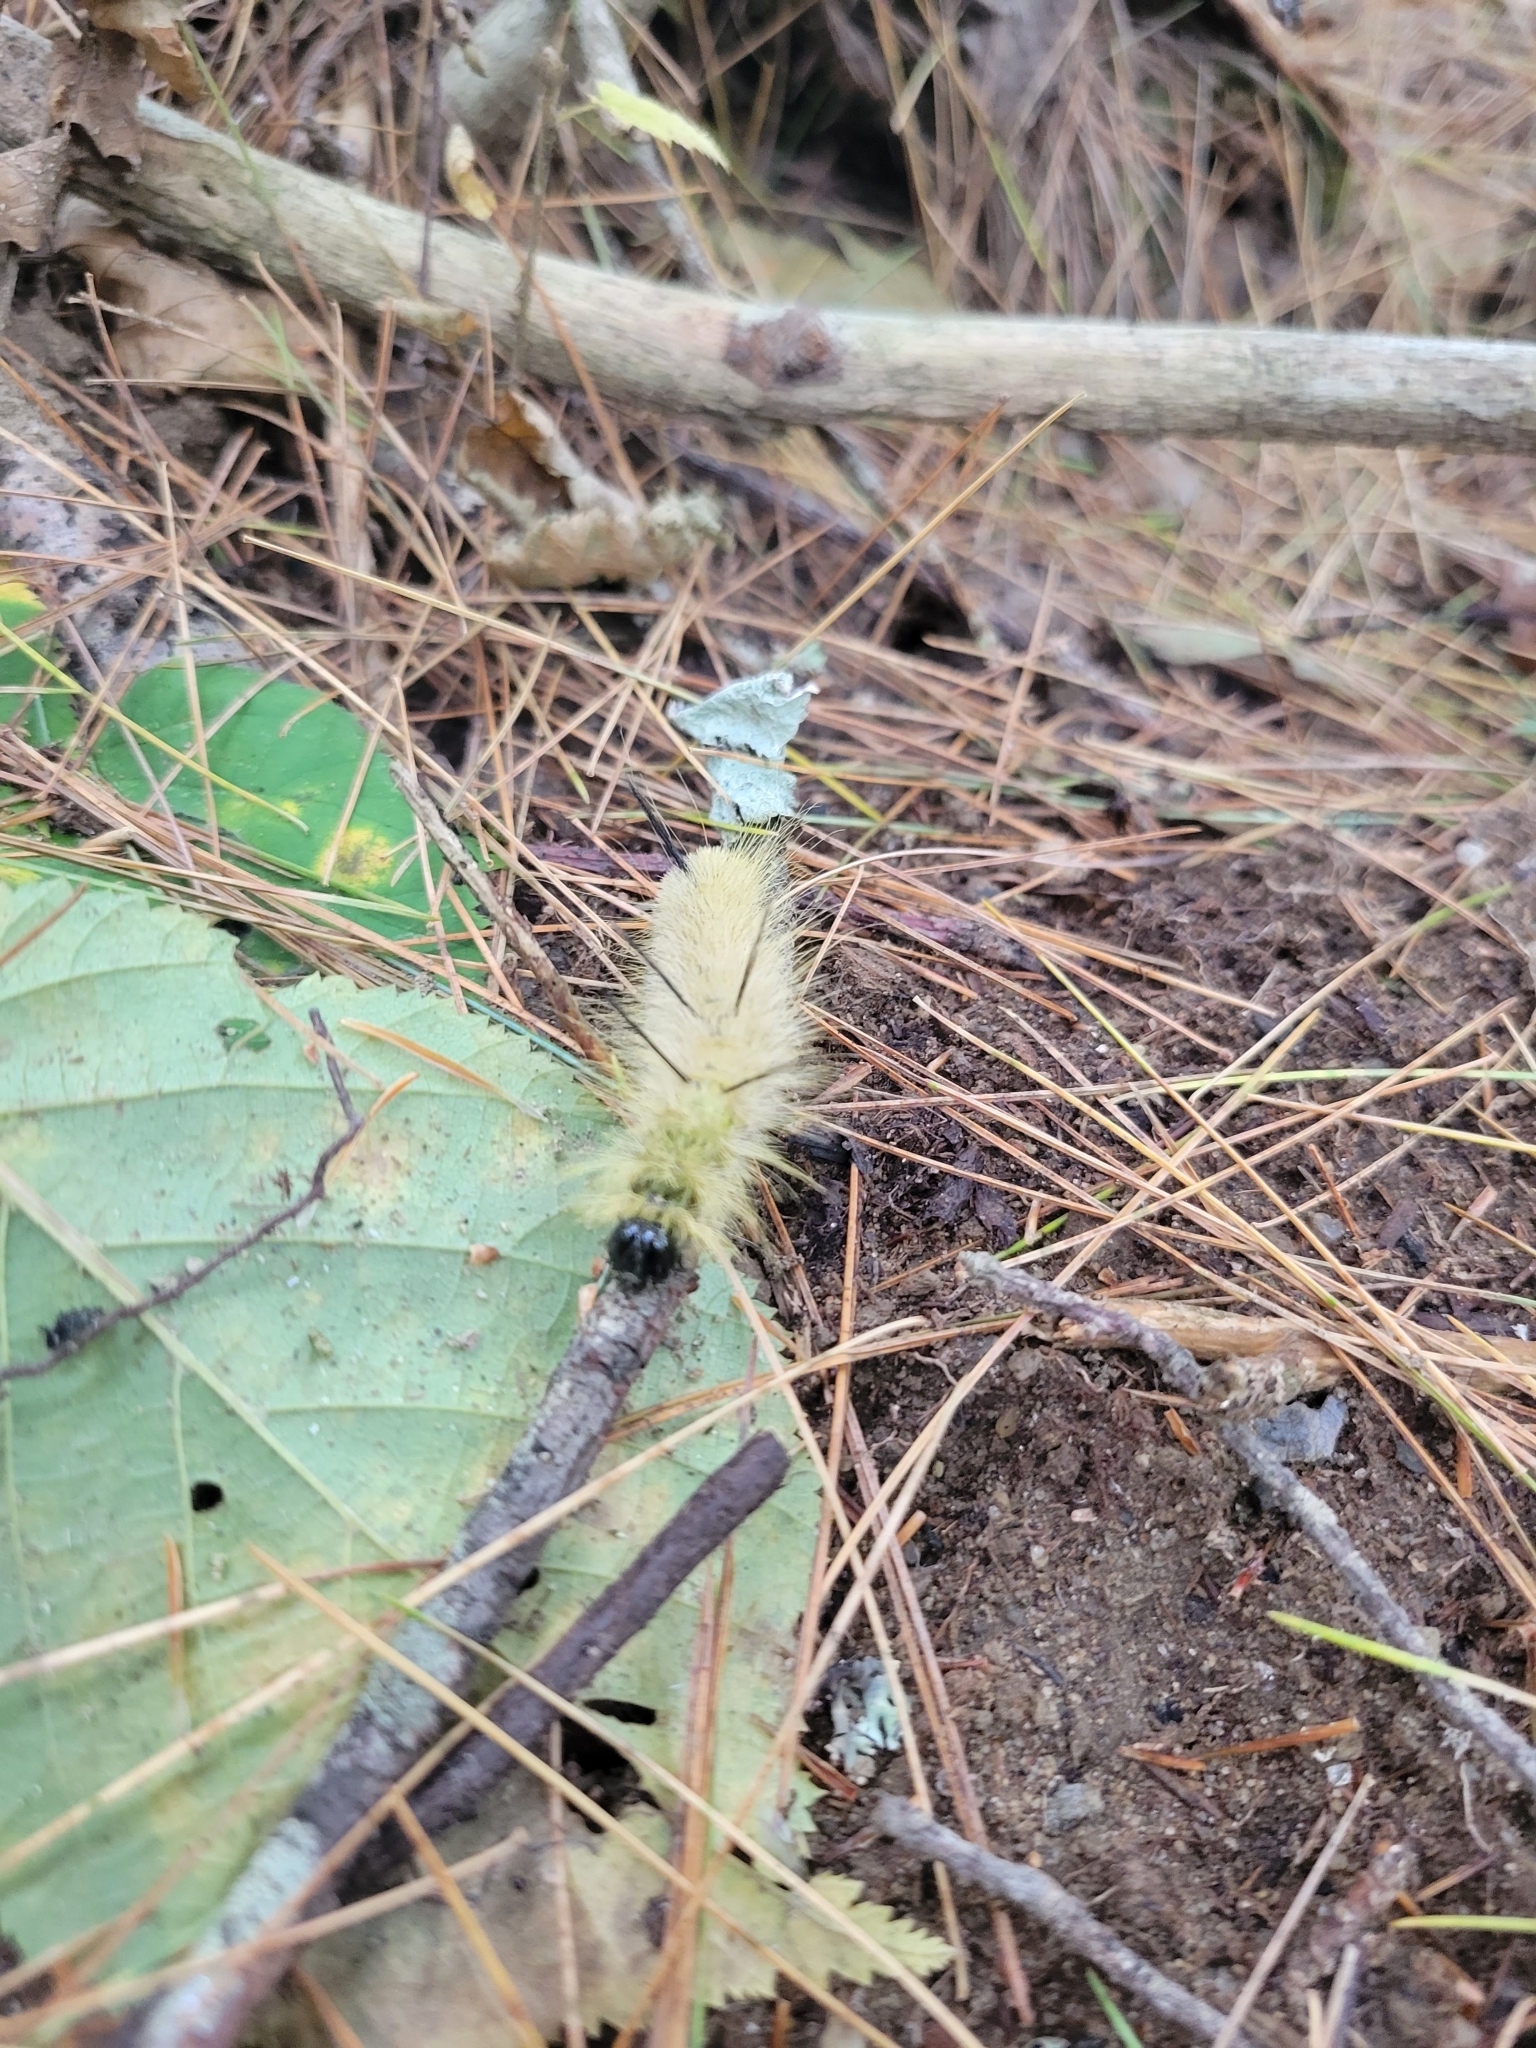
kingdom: Animalia
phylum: Arthropoda
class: Insecta
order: Lepidoptera
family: Noctuidae
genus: Acronicta
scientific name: Acronicta americana
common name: American dagger
